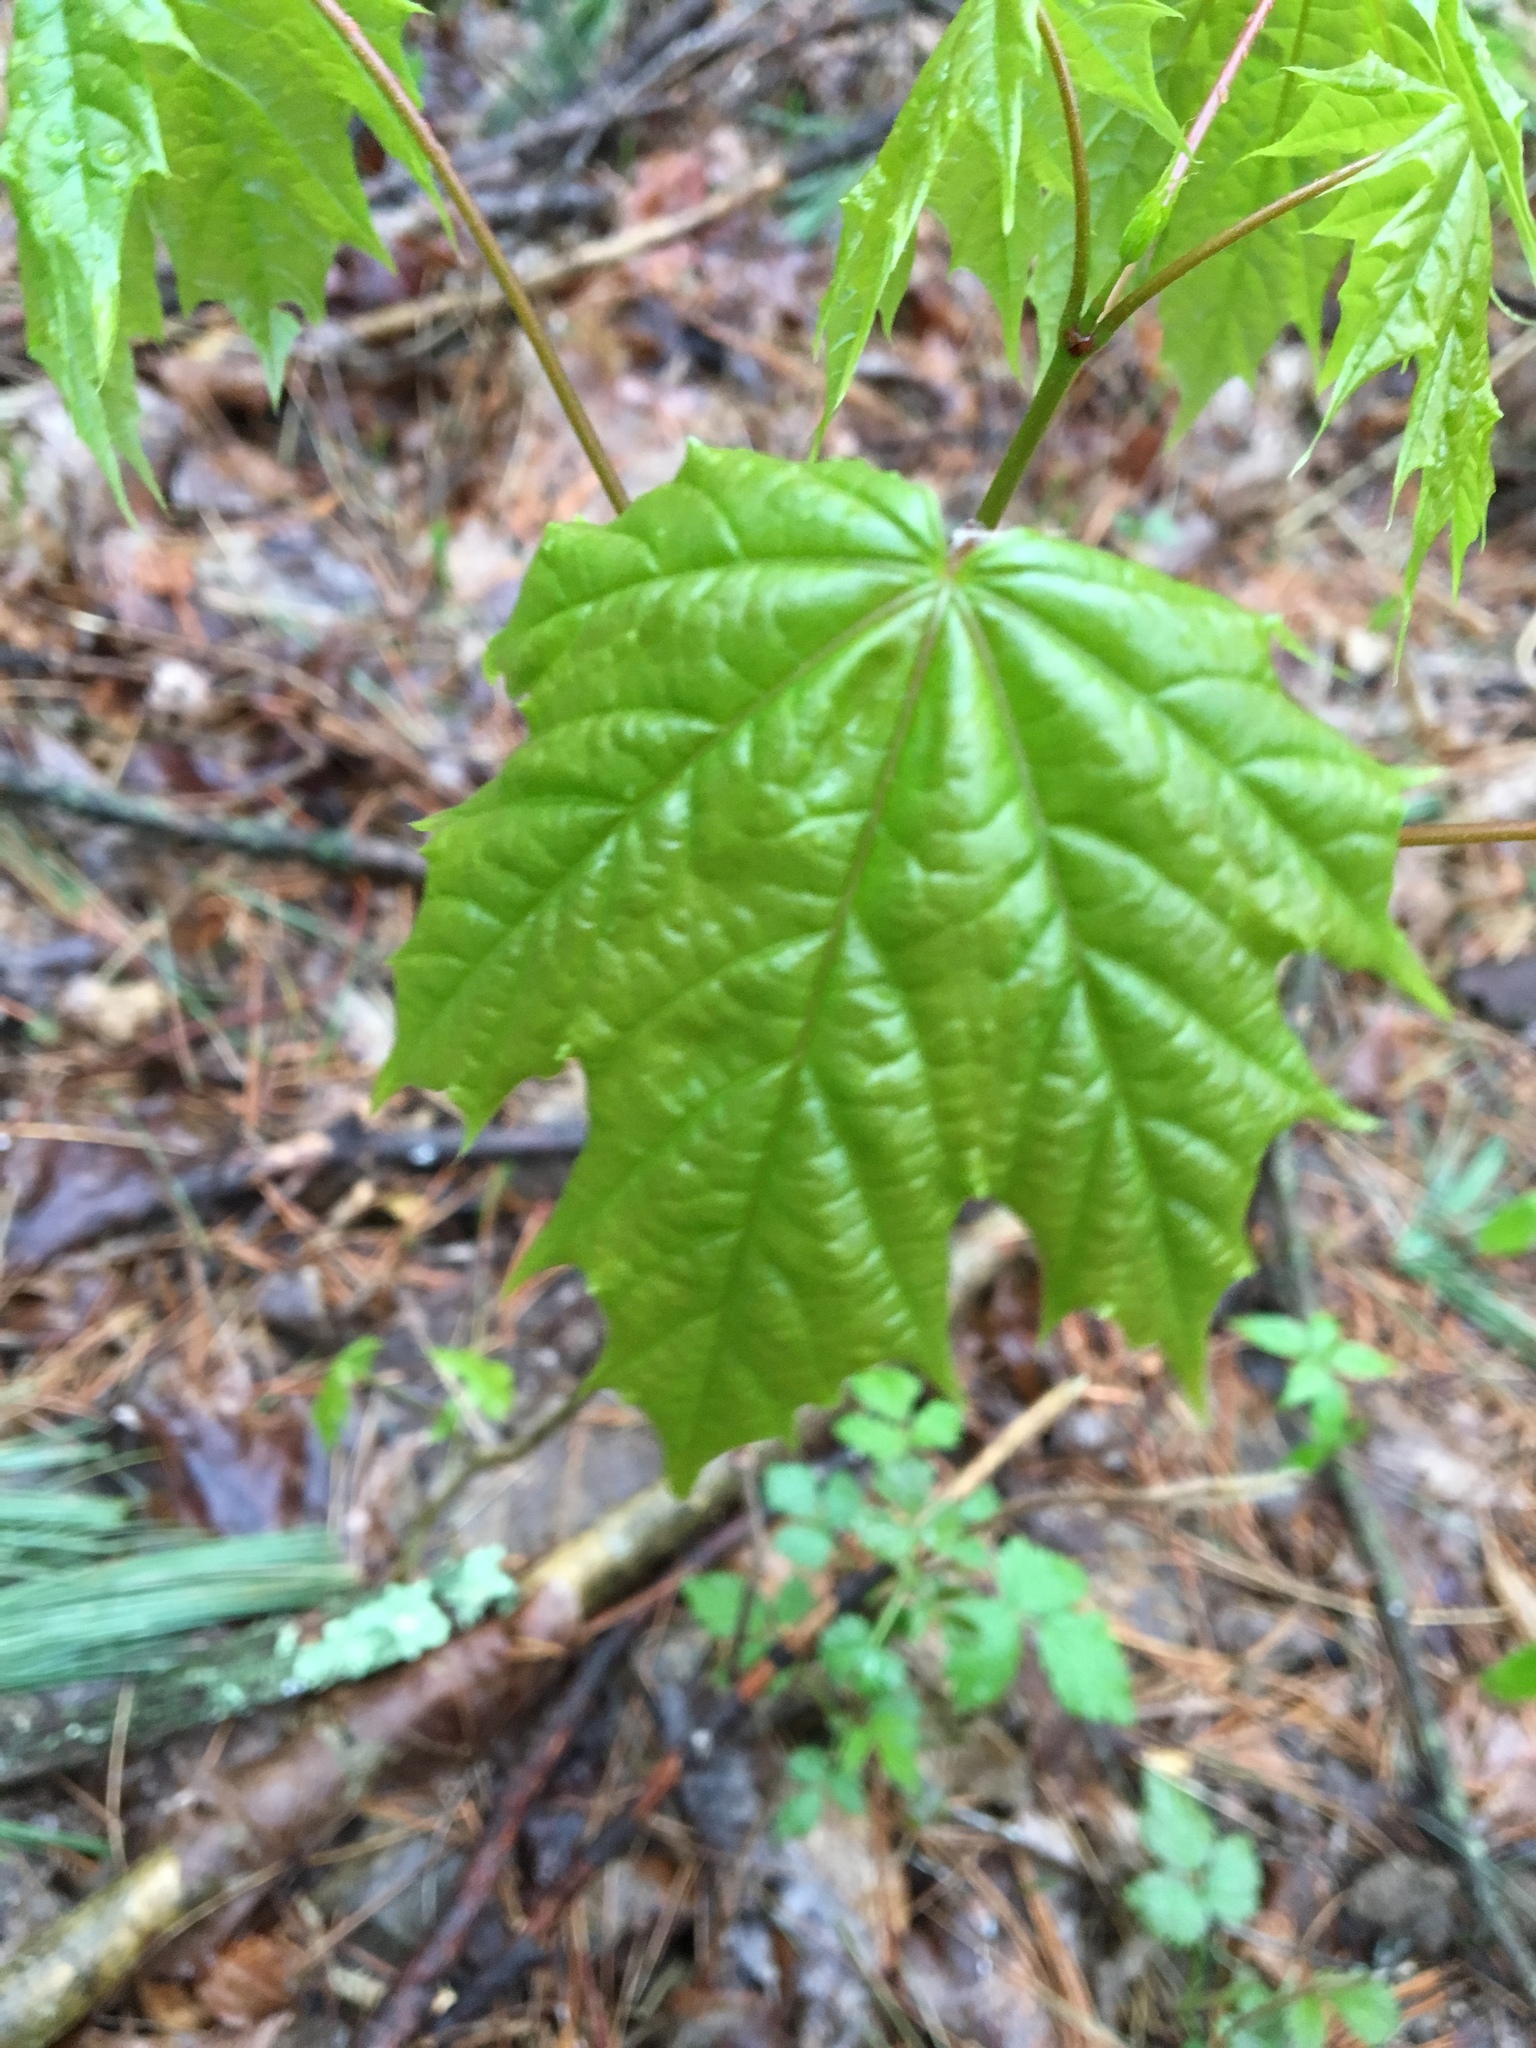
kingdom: Plantae
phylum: Tracheophyta
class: Magnoliopsida
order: Sapindales
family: Sapindaceae
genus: Acer
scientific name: Acer platanoides
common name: Norway maple
